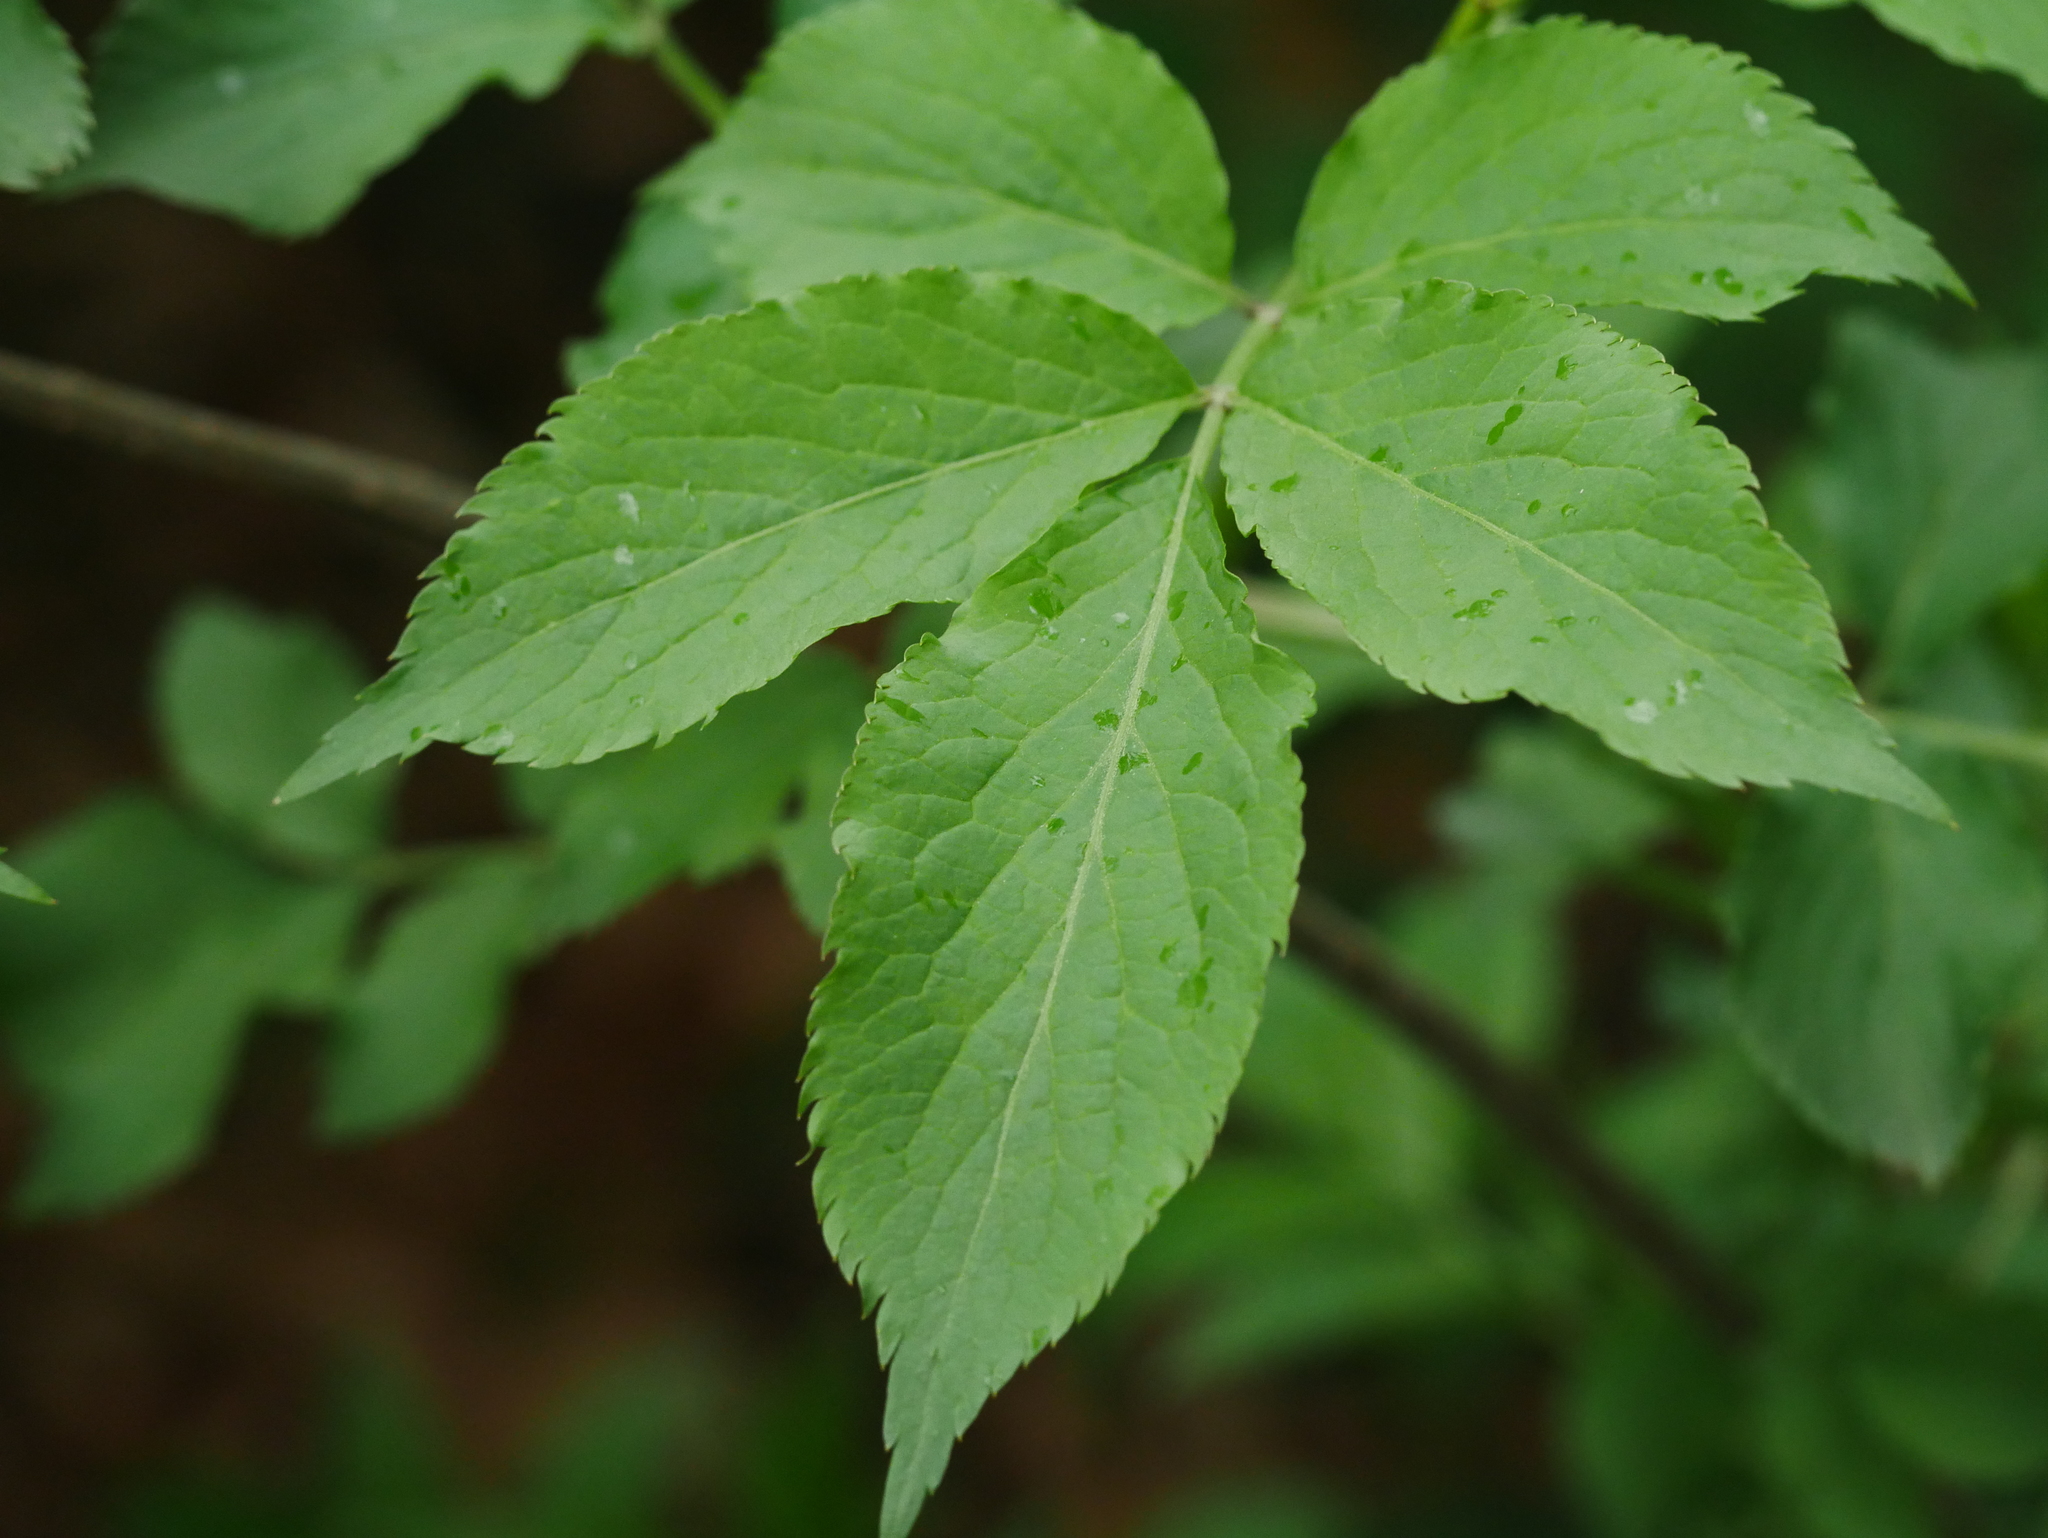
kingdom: Plantae
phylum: Tracheophyta
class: Magnoliopsida
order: Dipsacales
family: Viburnaceae
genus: Sambucus
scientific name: Sambucus nigra
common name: Elder
